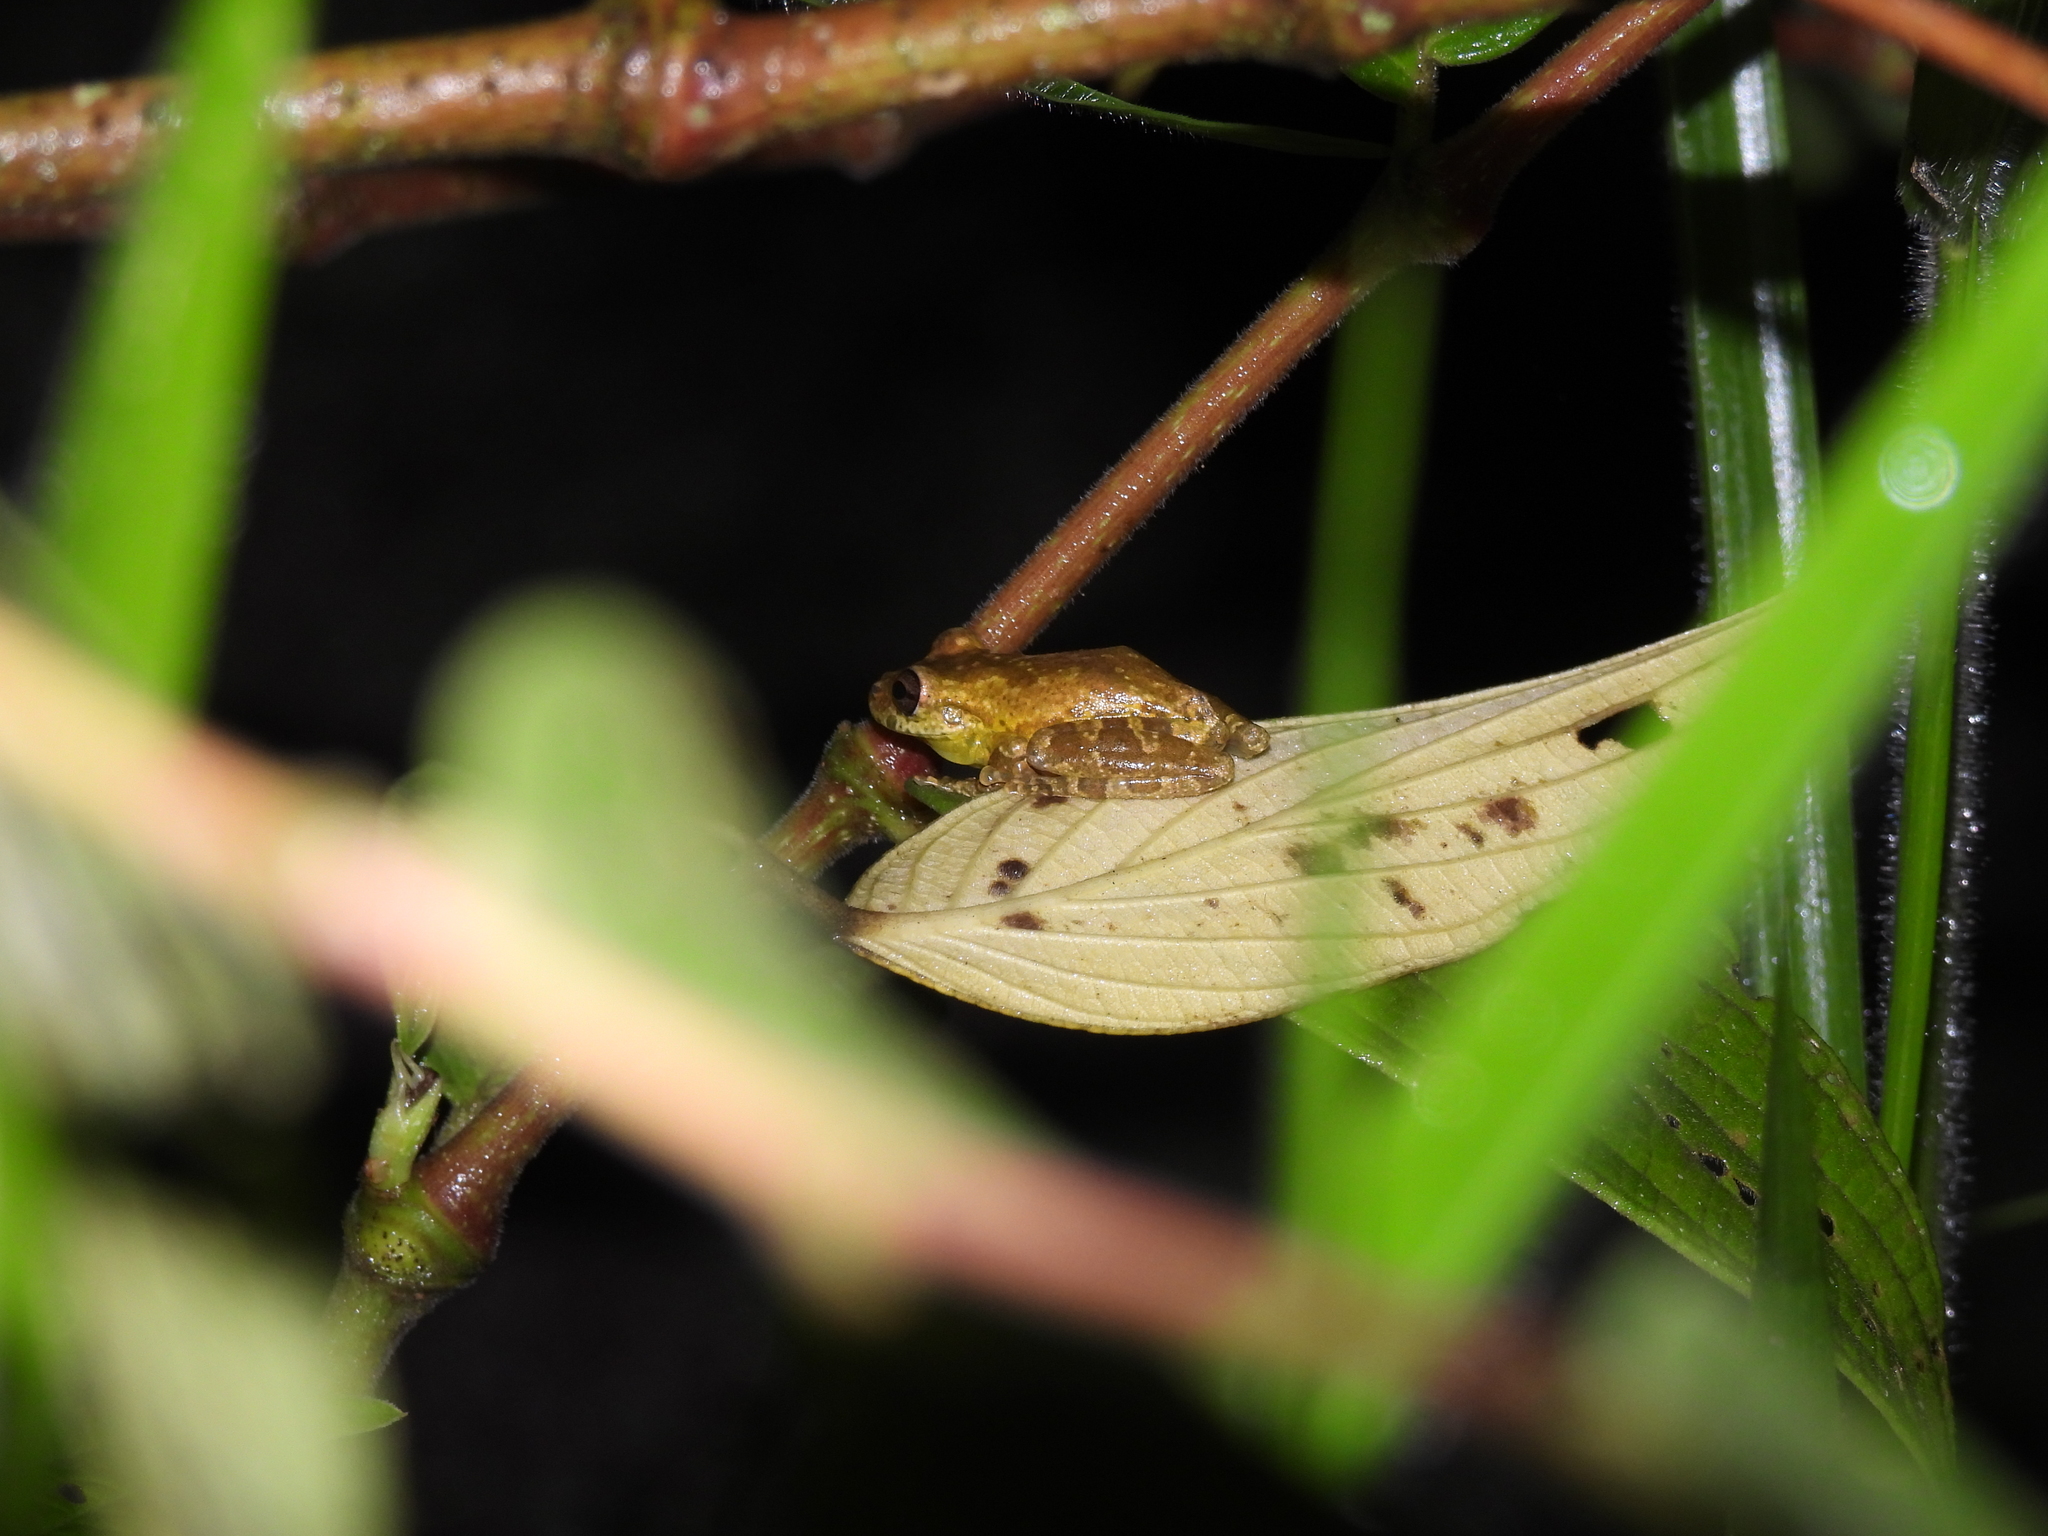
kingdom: Animalia
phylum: Chordata
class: Amphibia
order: Anura
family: Hylidae
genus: Scinax
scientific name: Scinax caprarius
